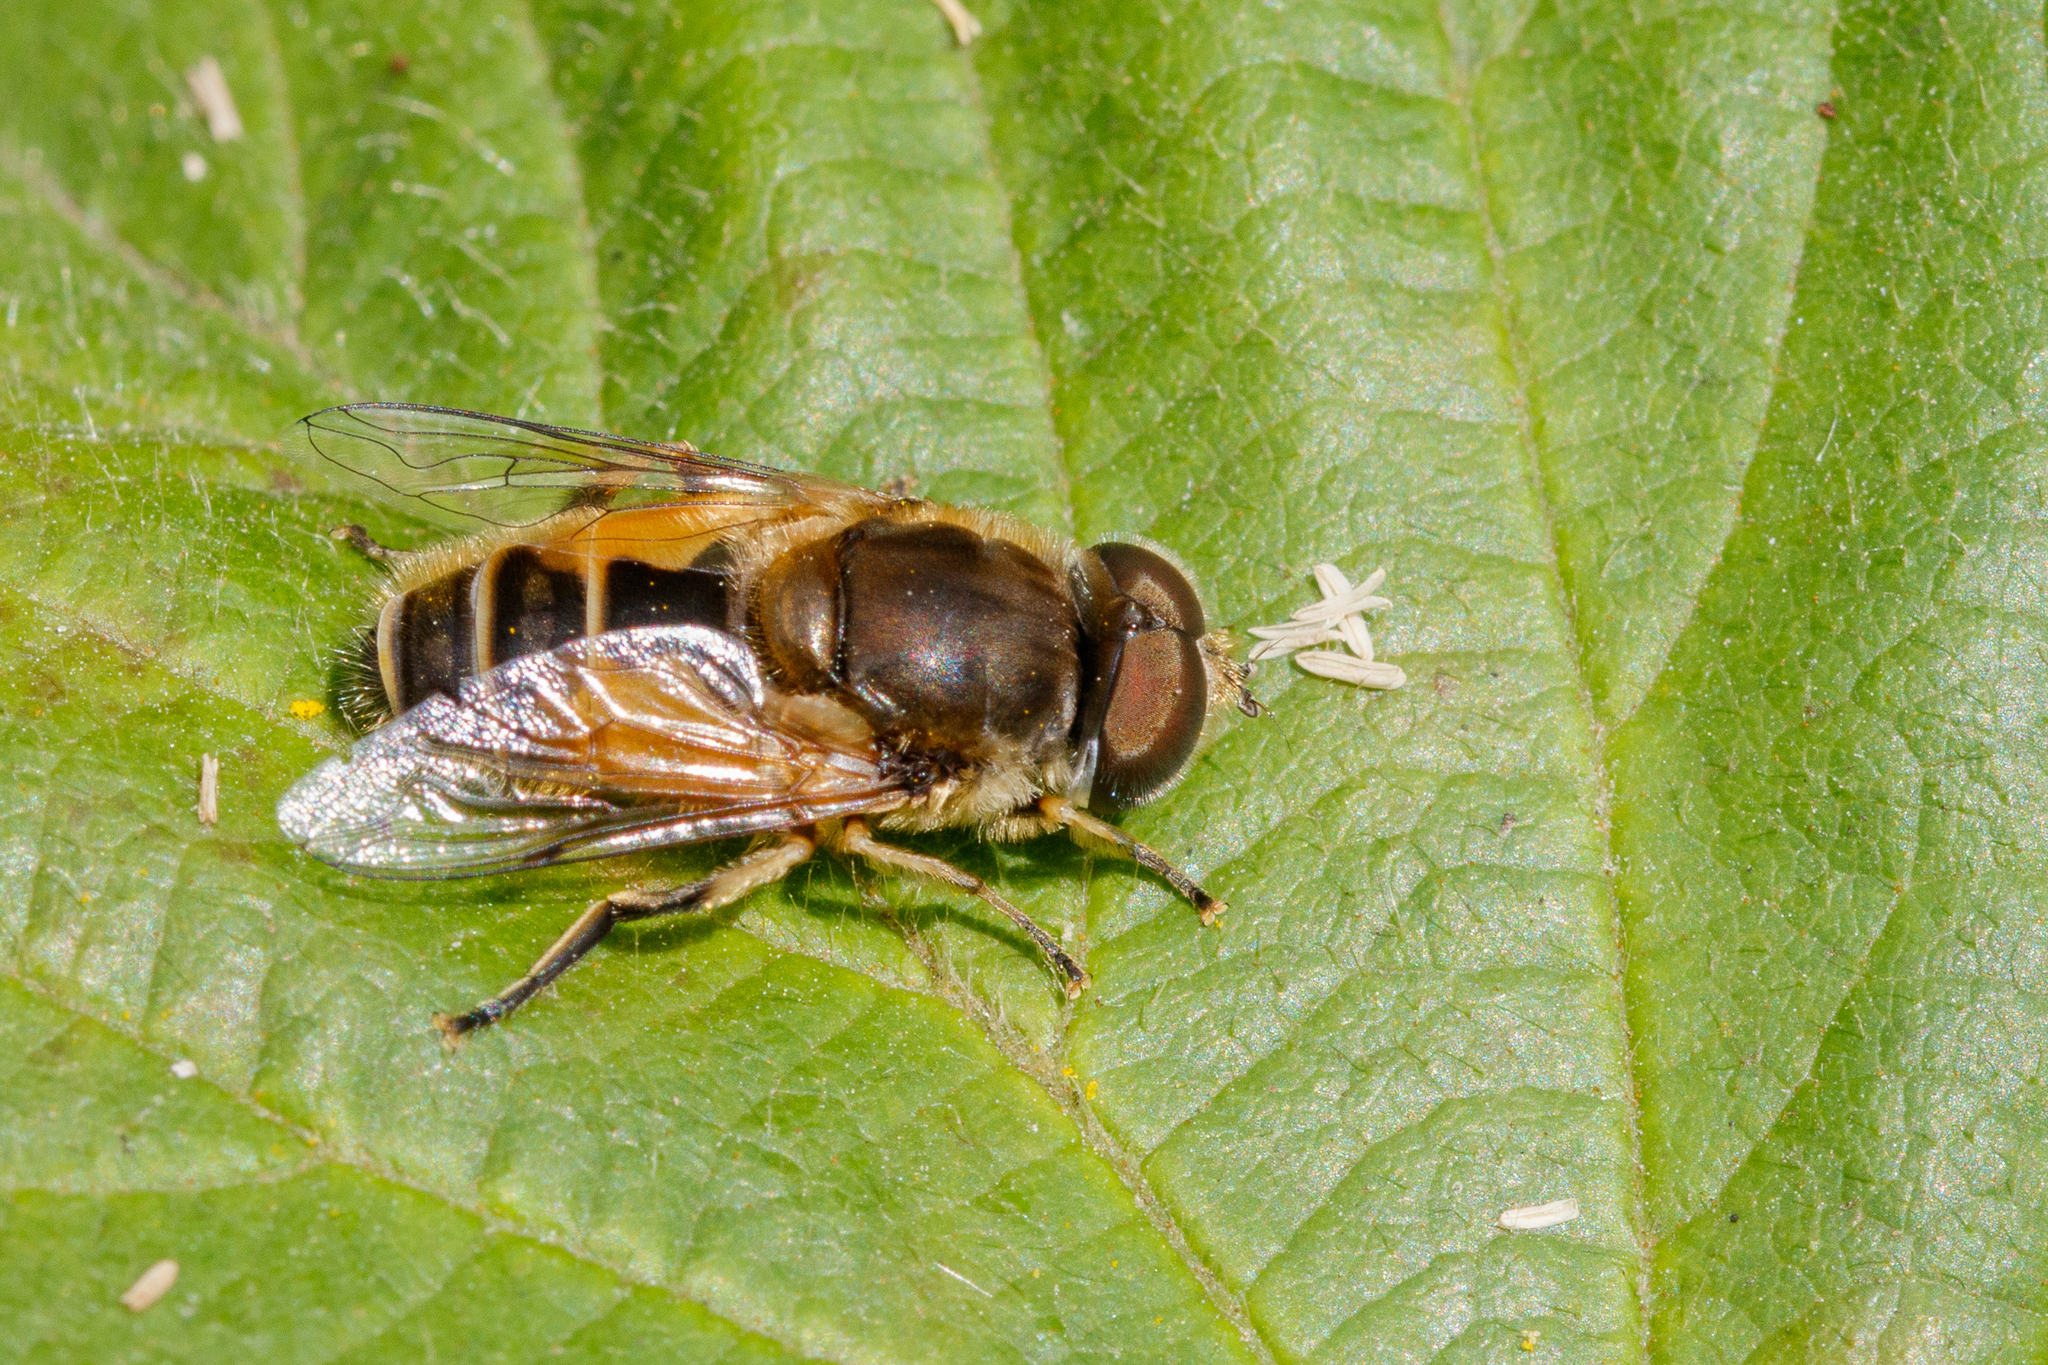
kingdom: Animalia
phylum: Arthropoda
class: Insecta
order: Diptera
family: Syrphidae
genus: Eristalis
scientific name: Eristalis arbustorum
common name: Hover fly
